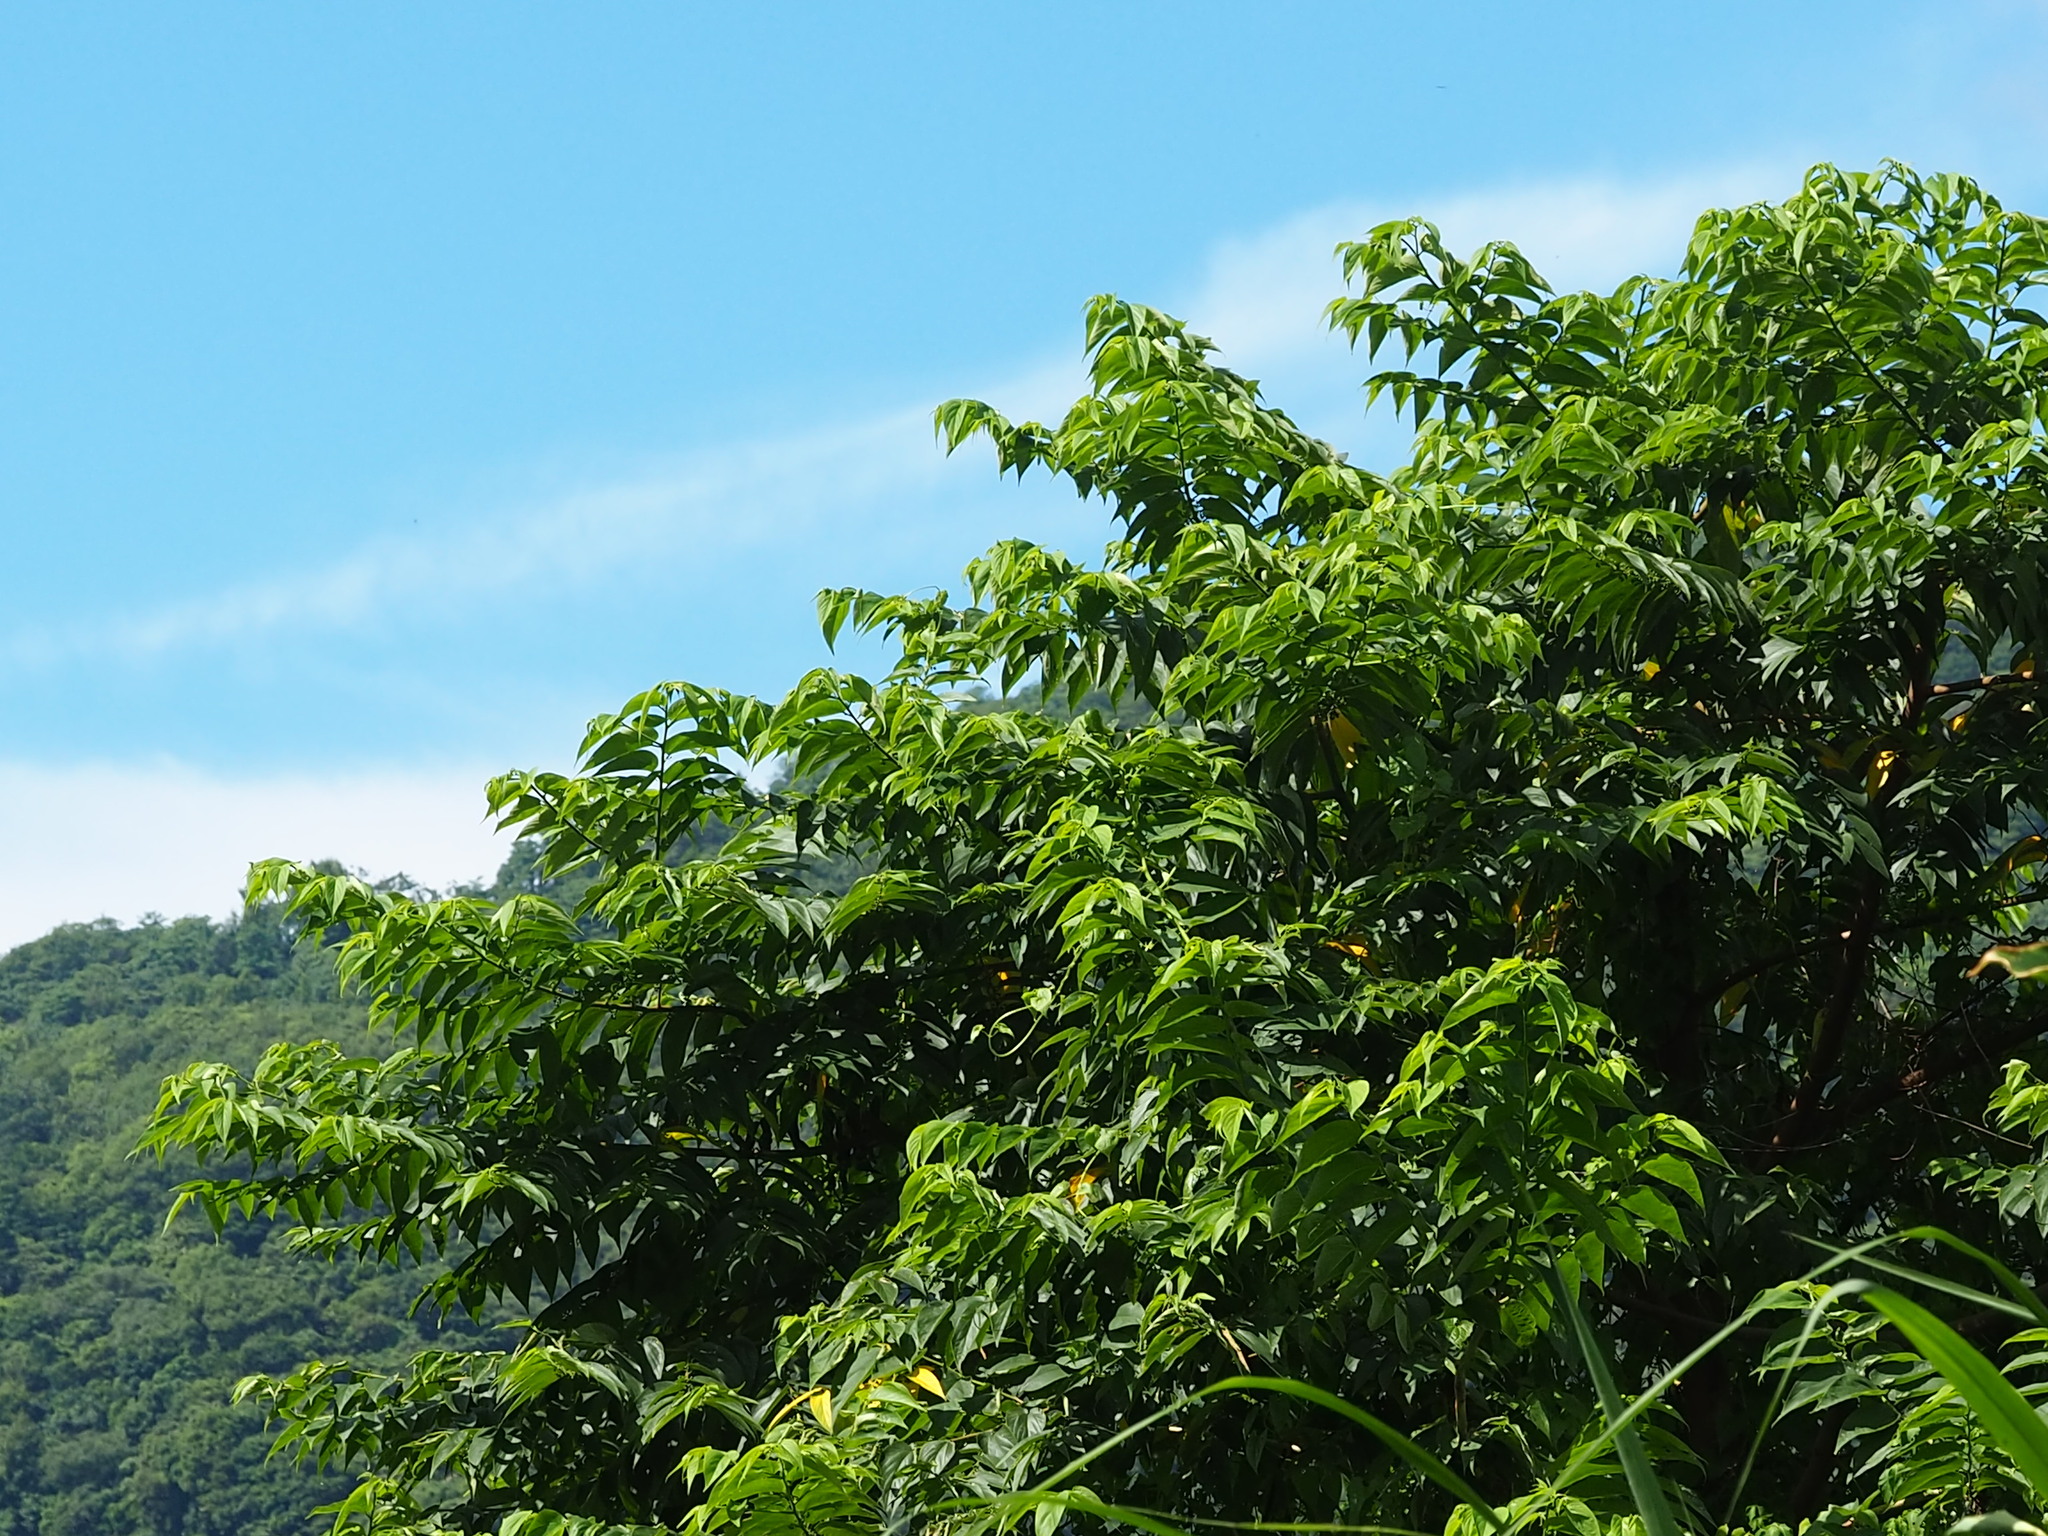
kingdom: Plantae
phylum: Tracheophyta
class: Magnoliopsida
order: Rosales
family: Cannabaceae
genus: Trema
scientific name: Trema orientale
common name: Indian charcoal tree
